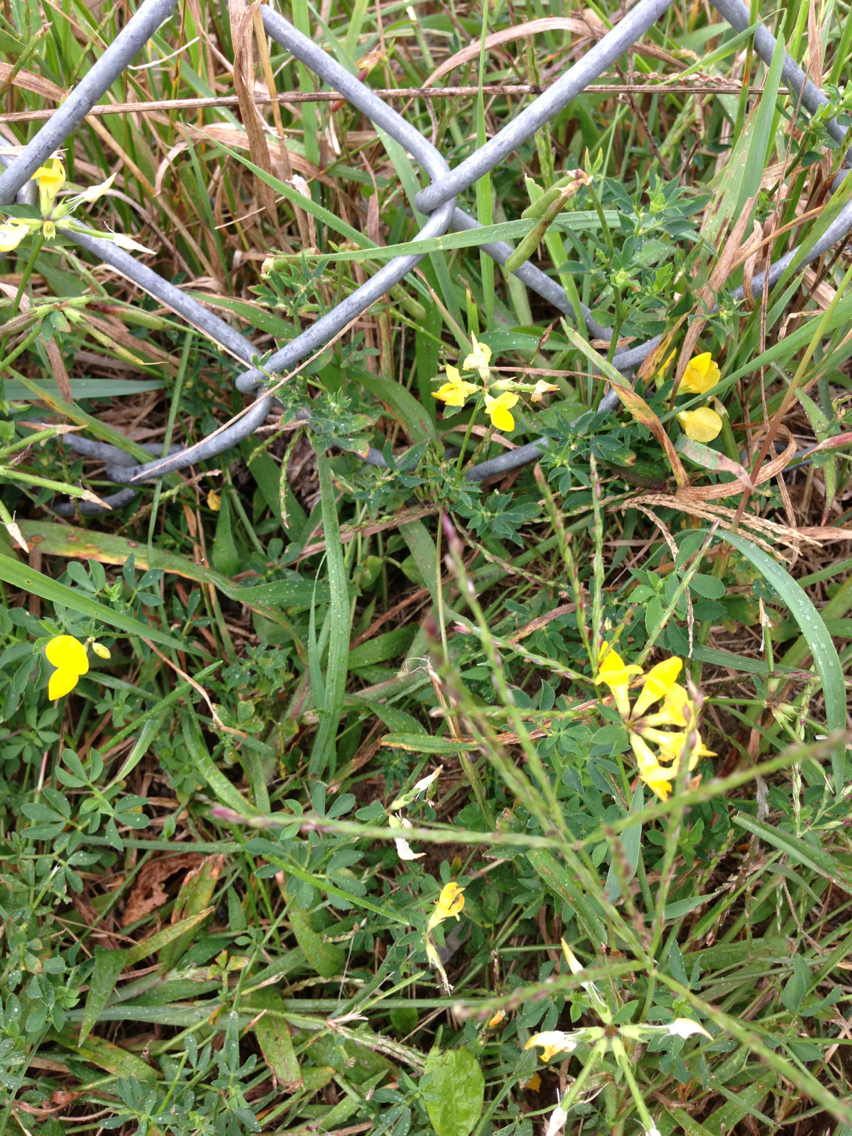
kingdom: Plantae
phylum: Tracheophyta
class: Magnoliopsida
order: Fabales
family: Fabaceae
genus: Lotus
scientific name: Lotus corniculatus
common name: Common bird's-foot-trefoil
